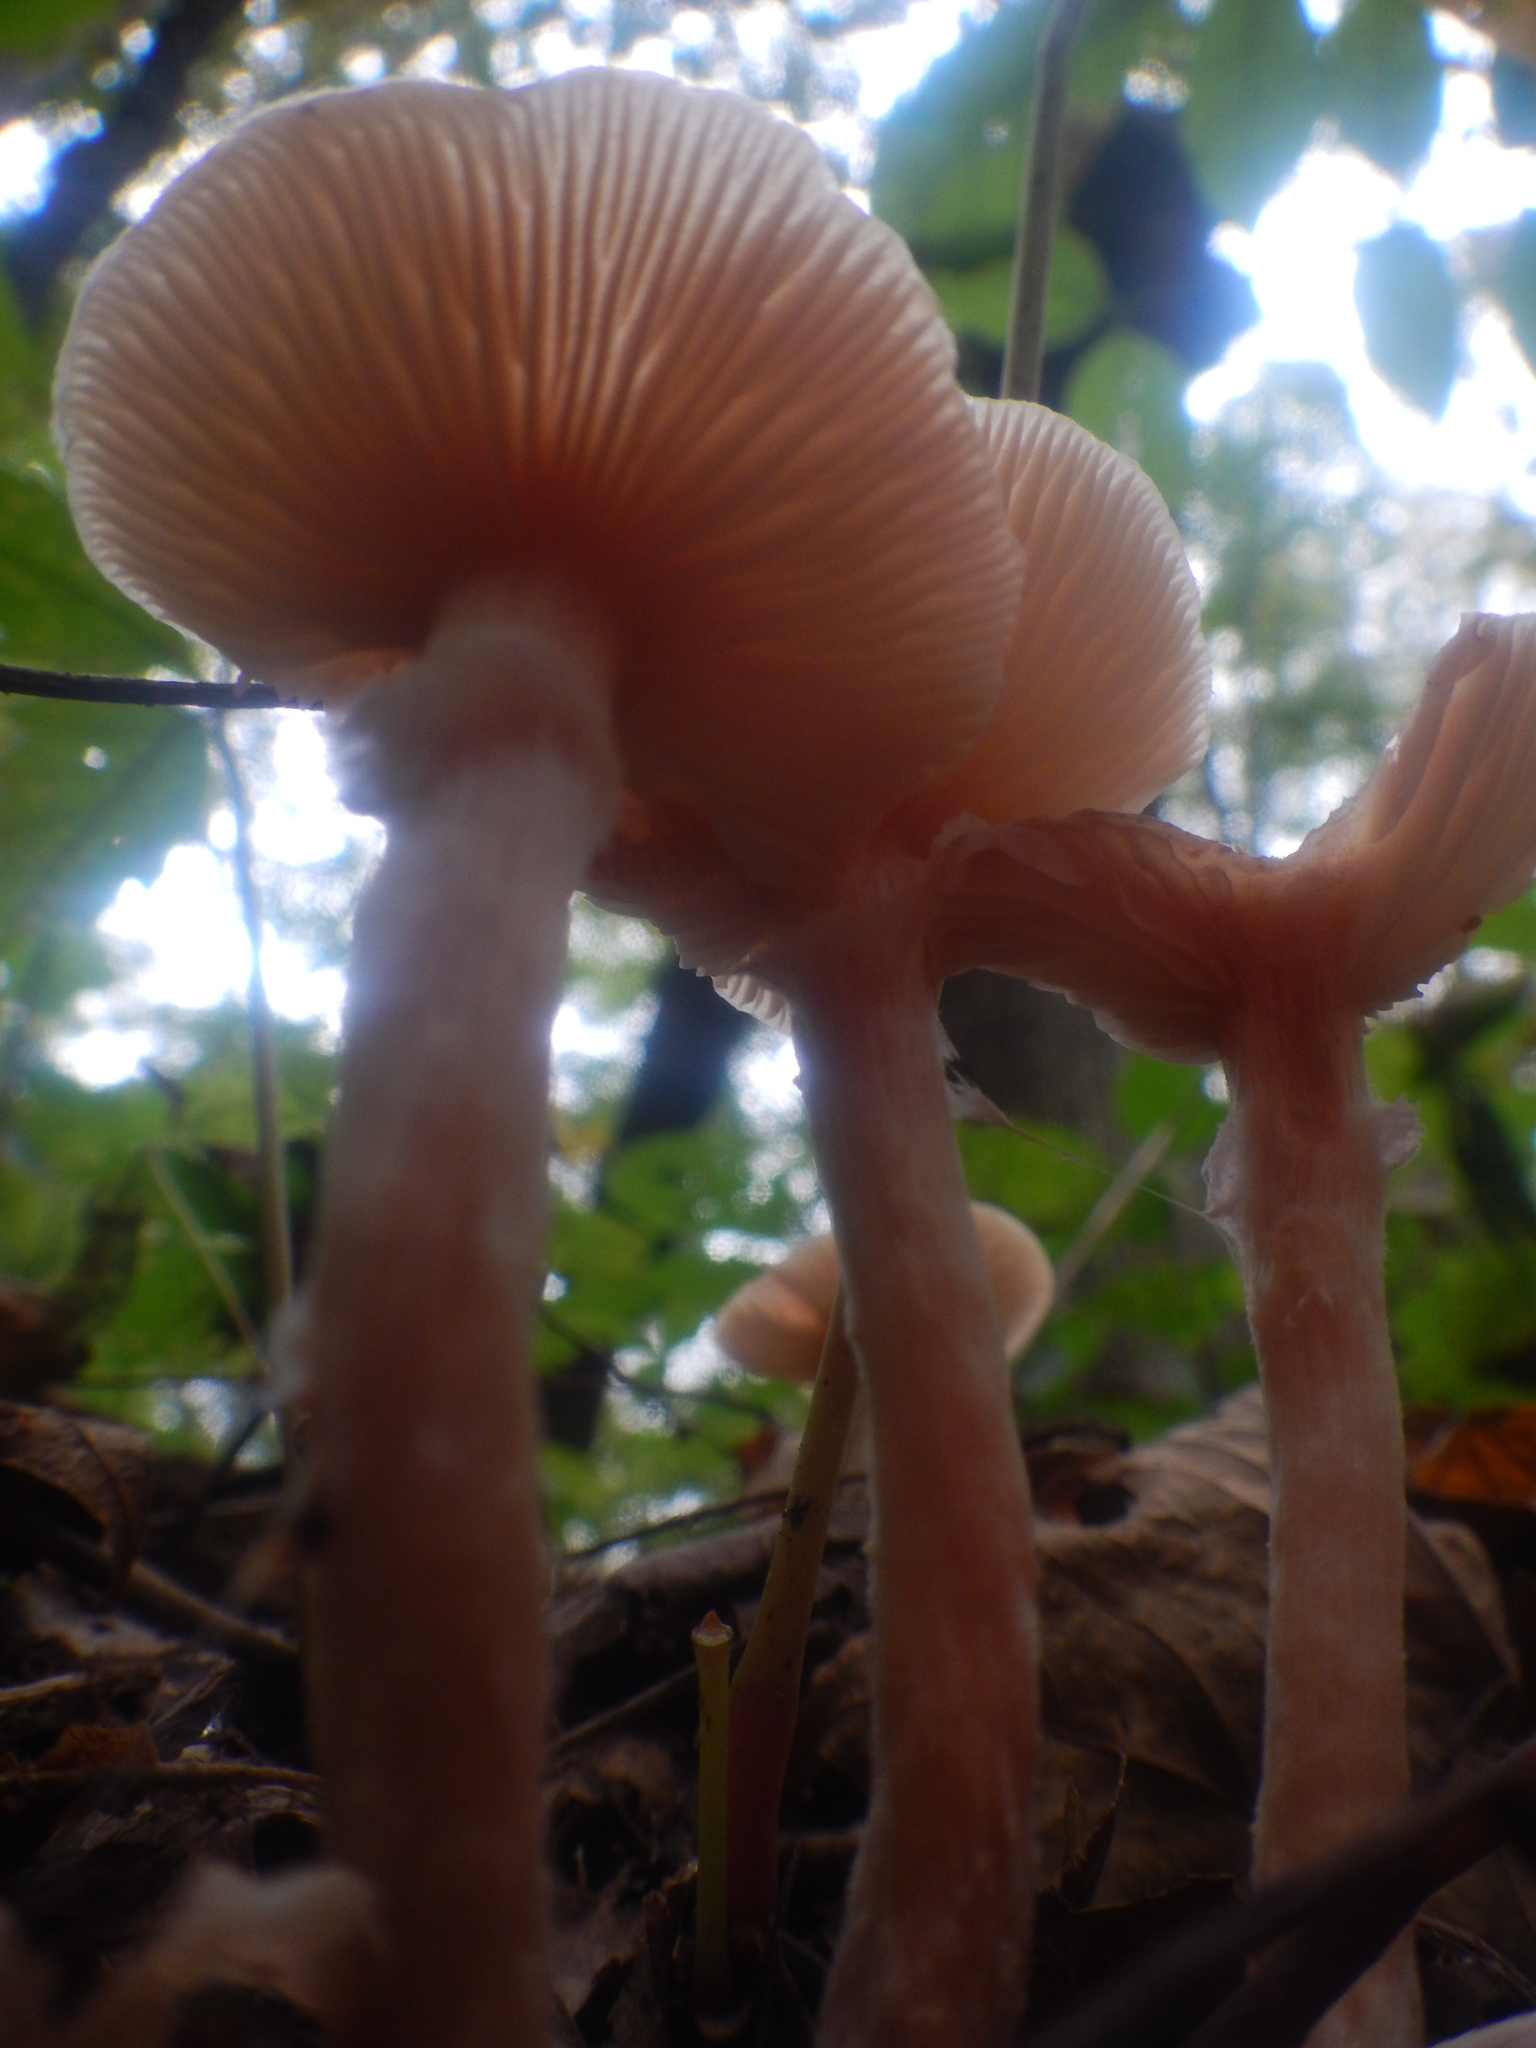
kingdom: Fungi
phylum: Basidiomycota
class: Agaricomycetes
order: Agaricales
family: Physalacriaceae
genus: Armillaria
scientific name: Armillaria mellea
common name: Honey fungus
